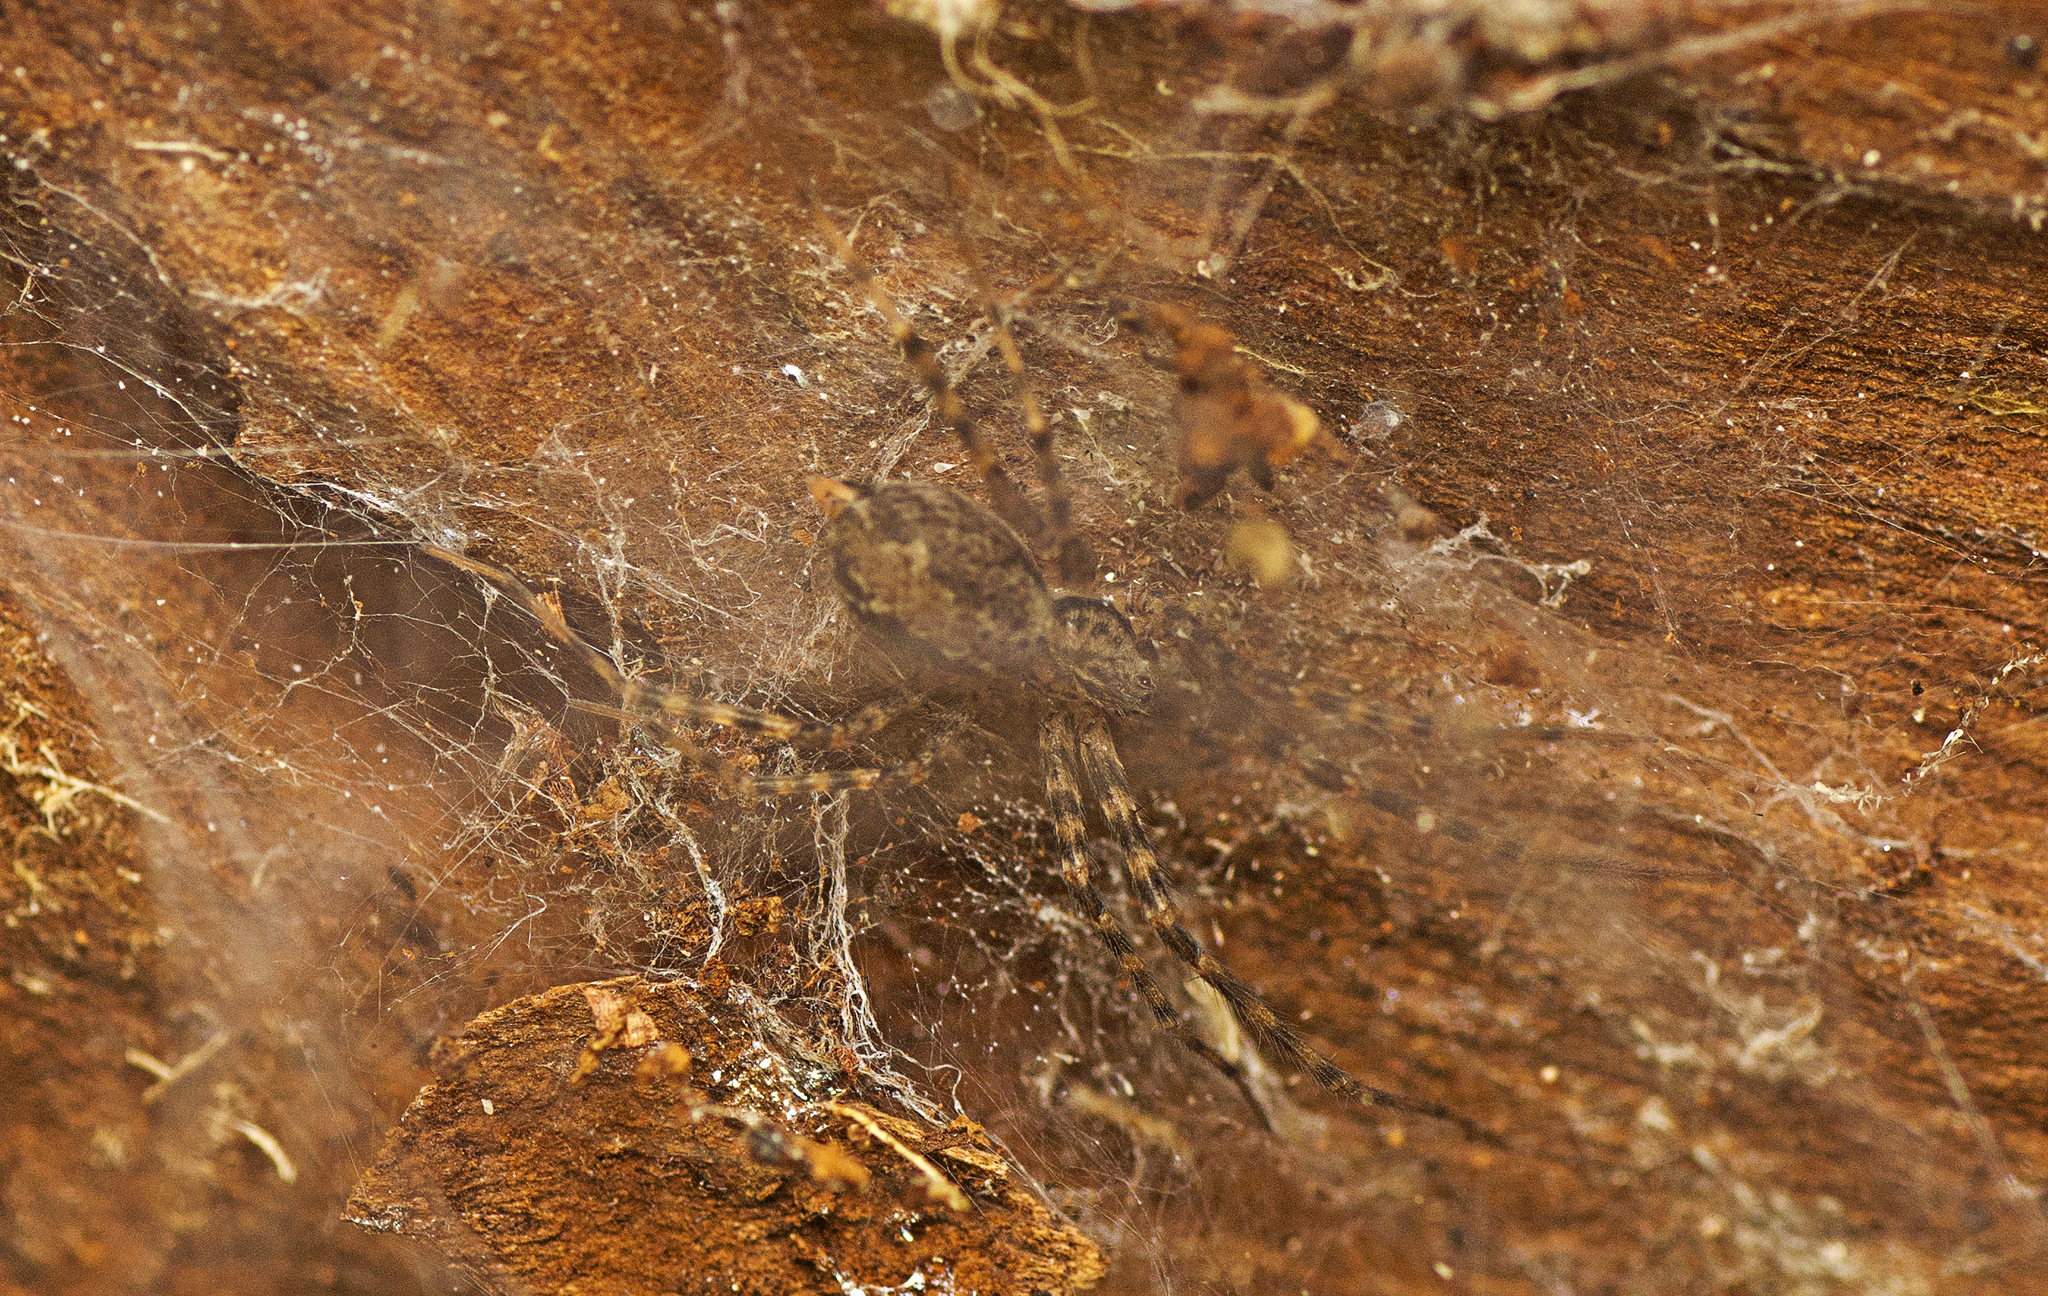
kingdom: Animalia
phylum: Arthropoda
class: Arachnida
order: Araneae
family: Stiphidiidae
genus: Stiphidion
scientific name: Stiphidion facetum
